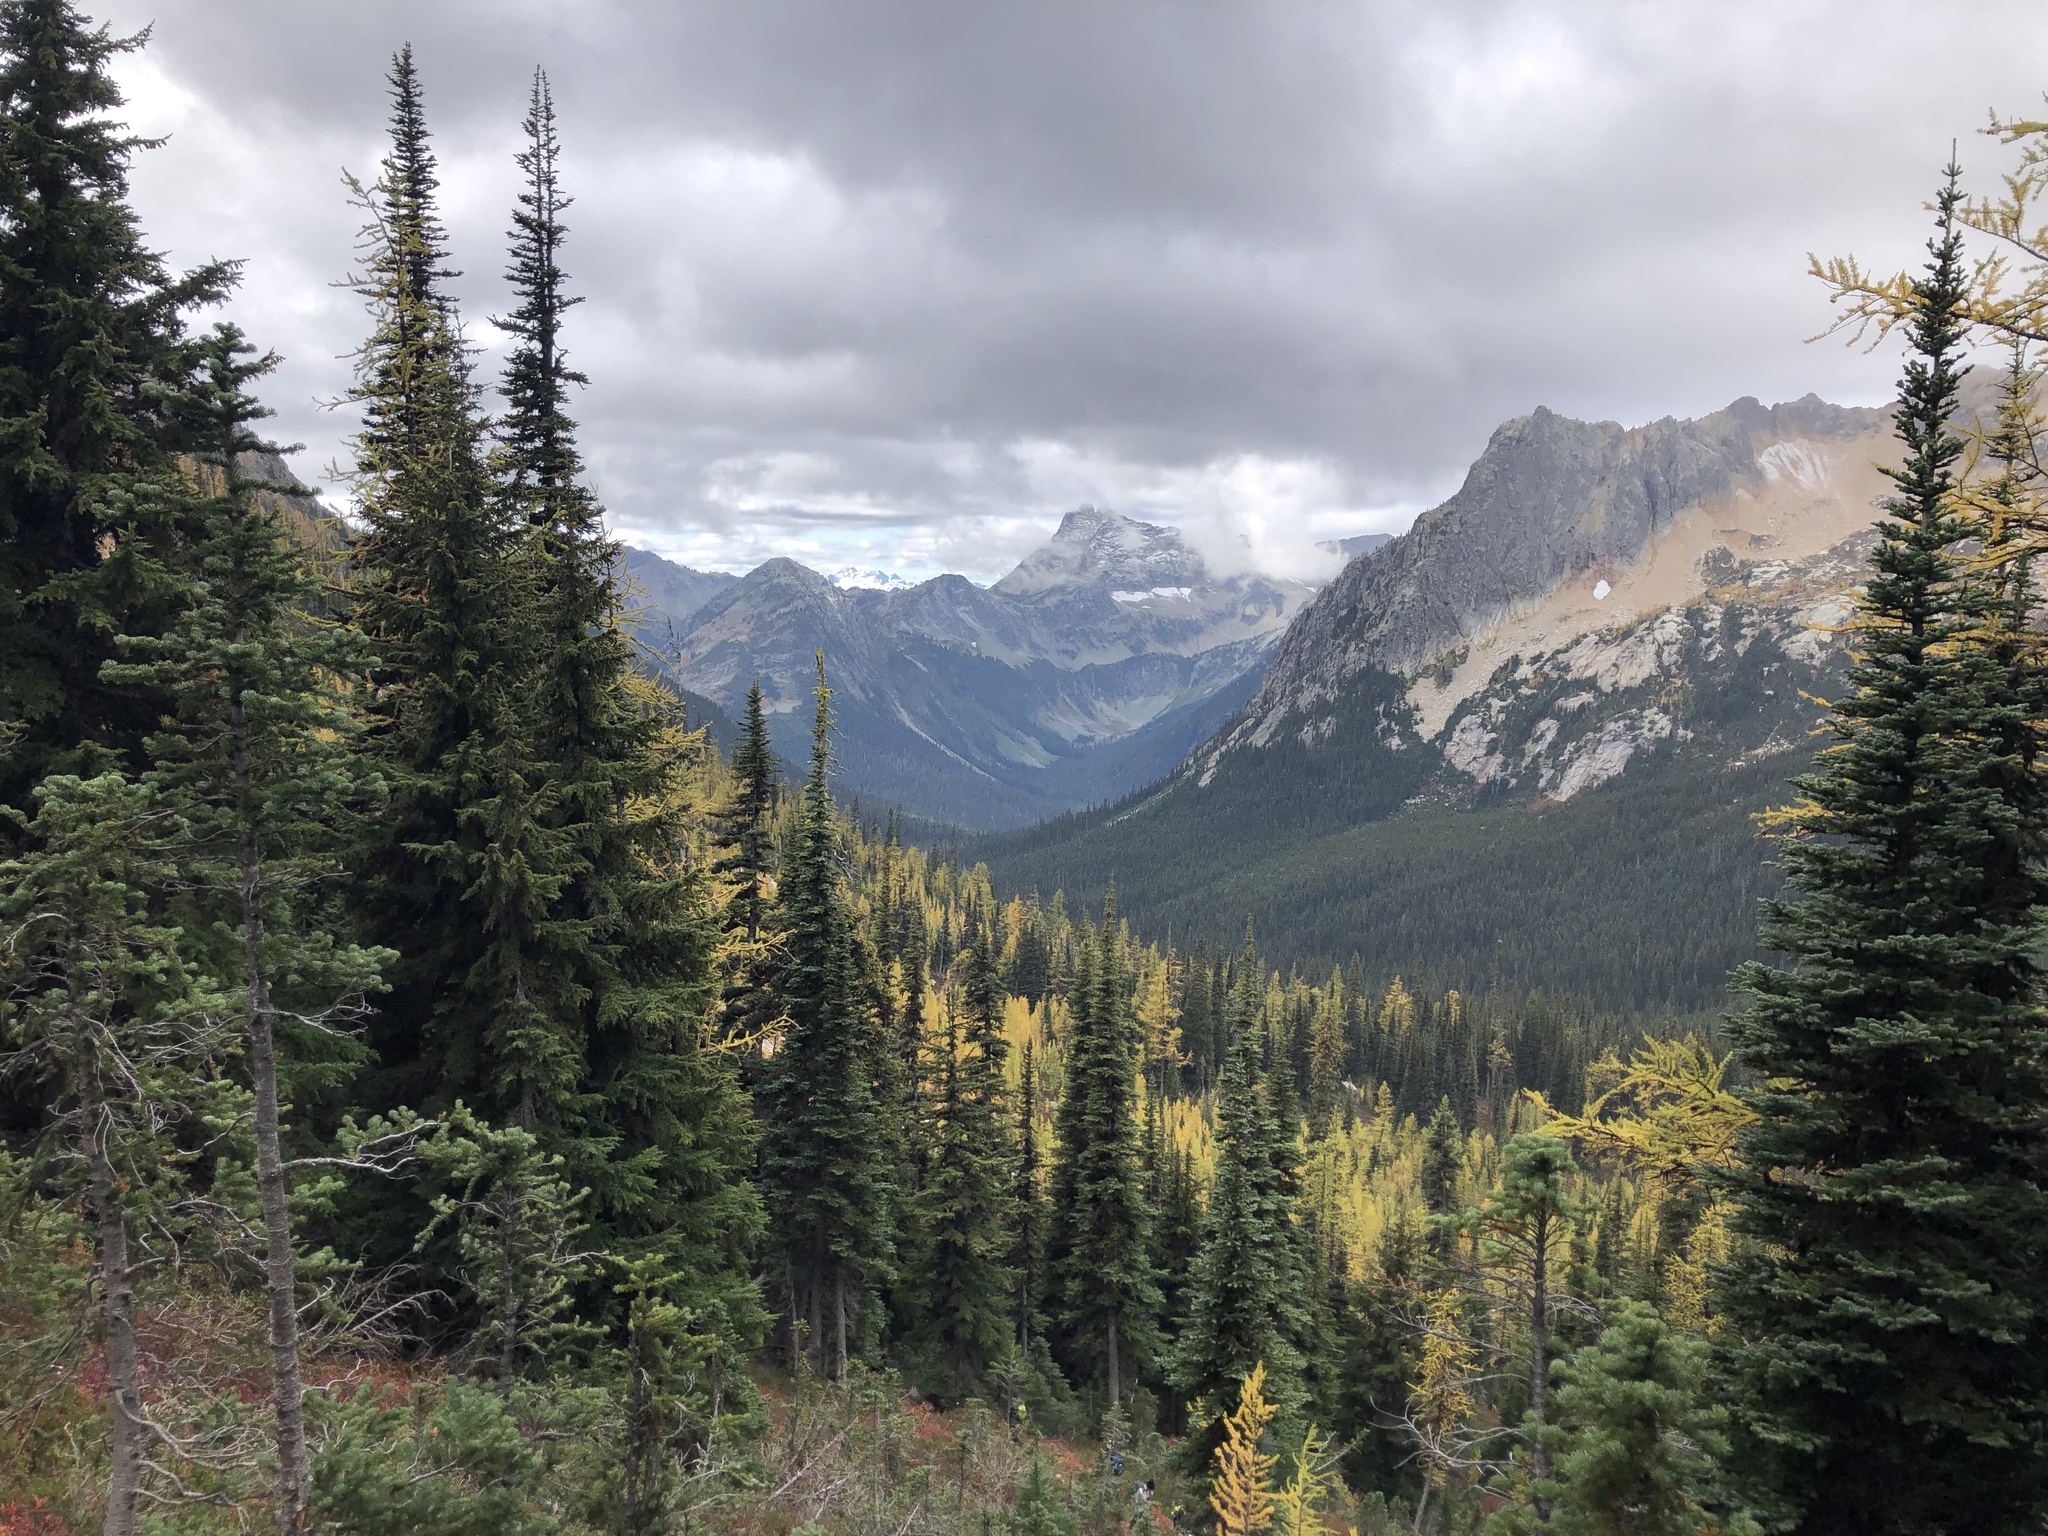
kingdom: Plantae
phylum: Tracheophyta
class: Pinopsida
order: Pinales
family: Pinaceae
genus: Larix
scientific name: Larix lyallii
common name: Alpine larch
